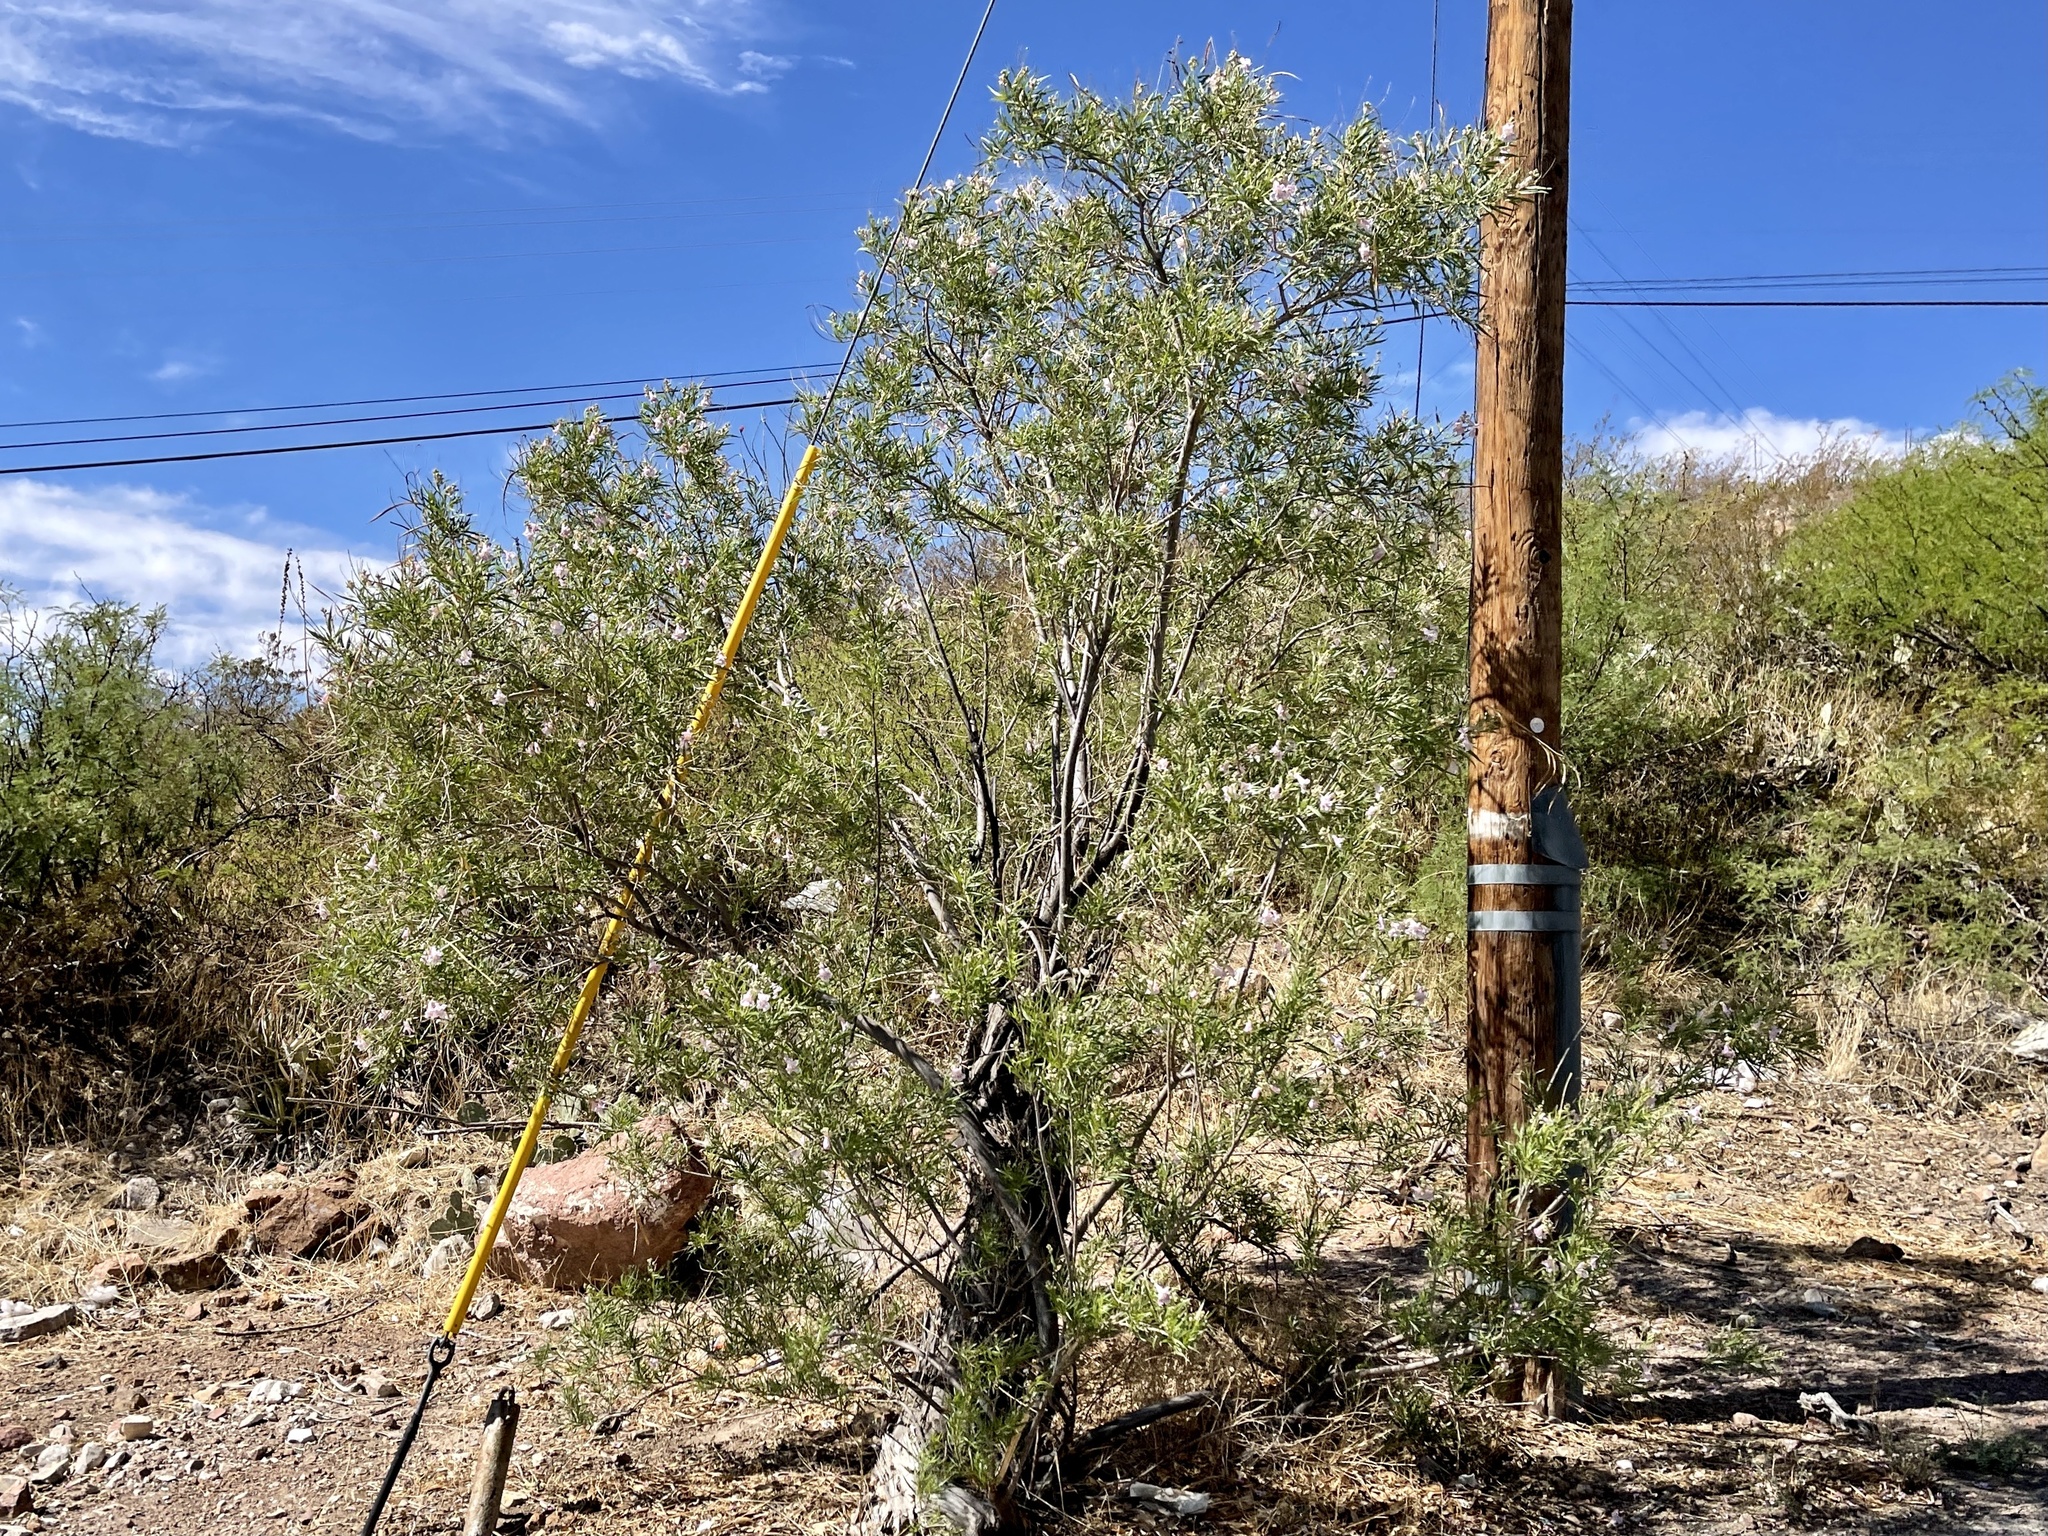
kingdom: Plantae
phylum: Tracheophyta
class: Magnoliopsida
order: Lamiales
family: Bignoniaceae
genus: Chilopsis
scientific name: Chilopsis linearis
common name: Desert-willow
